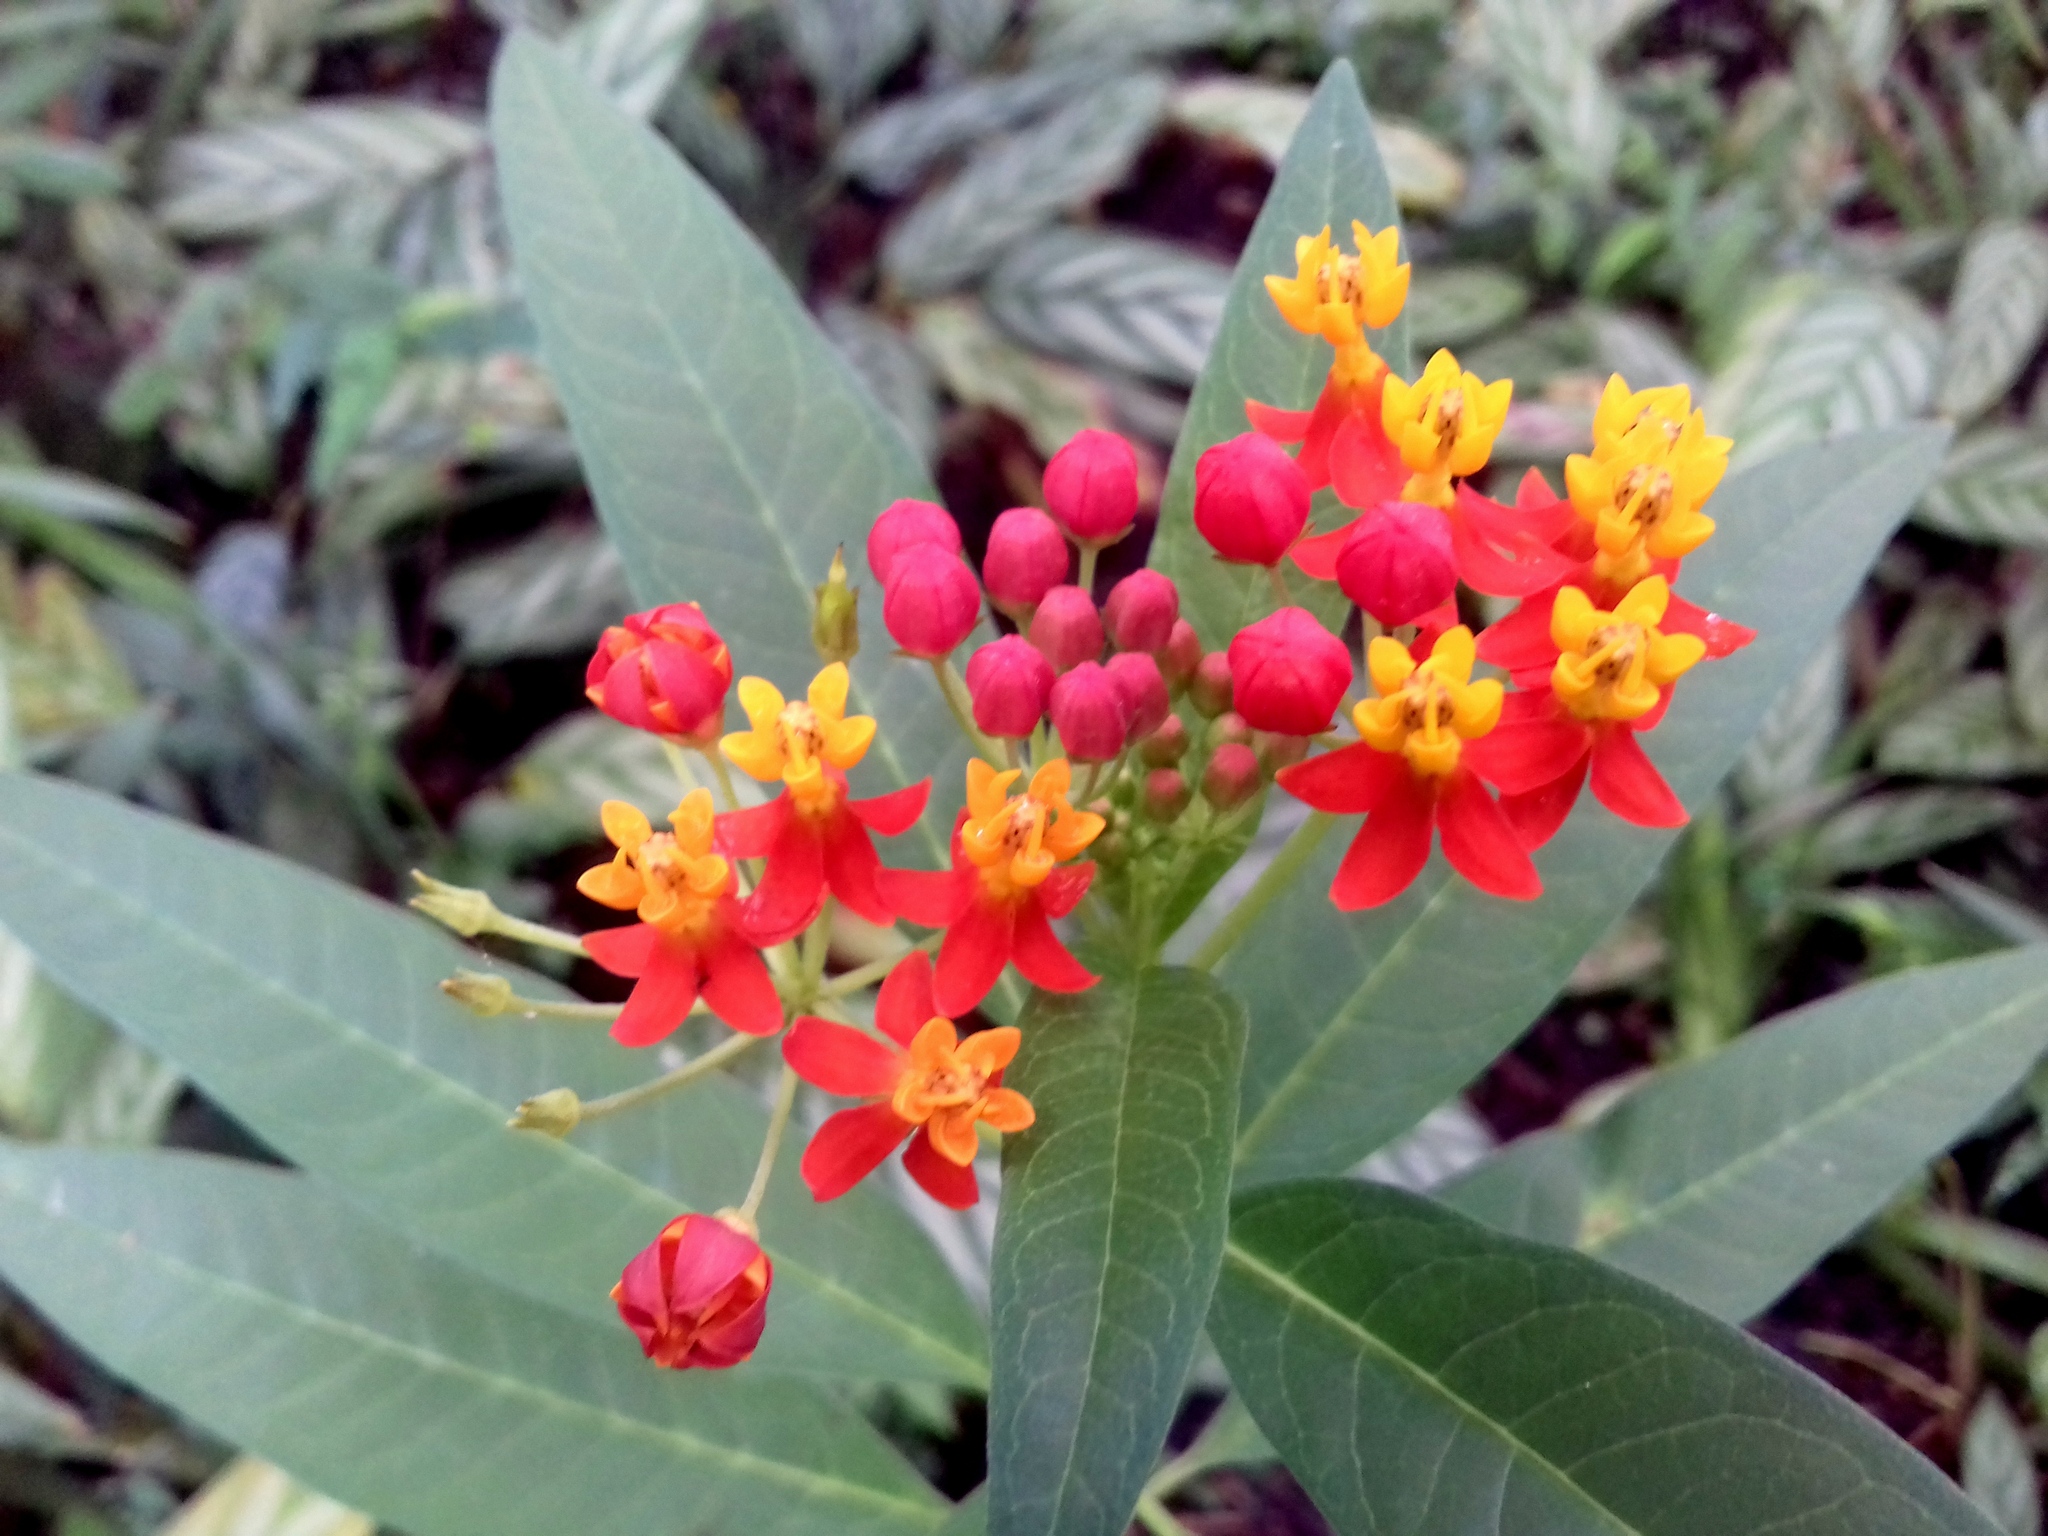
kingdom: Plantae
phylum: Tracheophyta
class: Magnoliopsida
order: Gentianales
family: Apocynaceae
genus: Asclepias
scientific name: Asclepias curassavica
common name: Bloodflower
